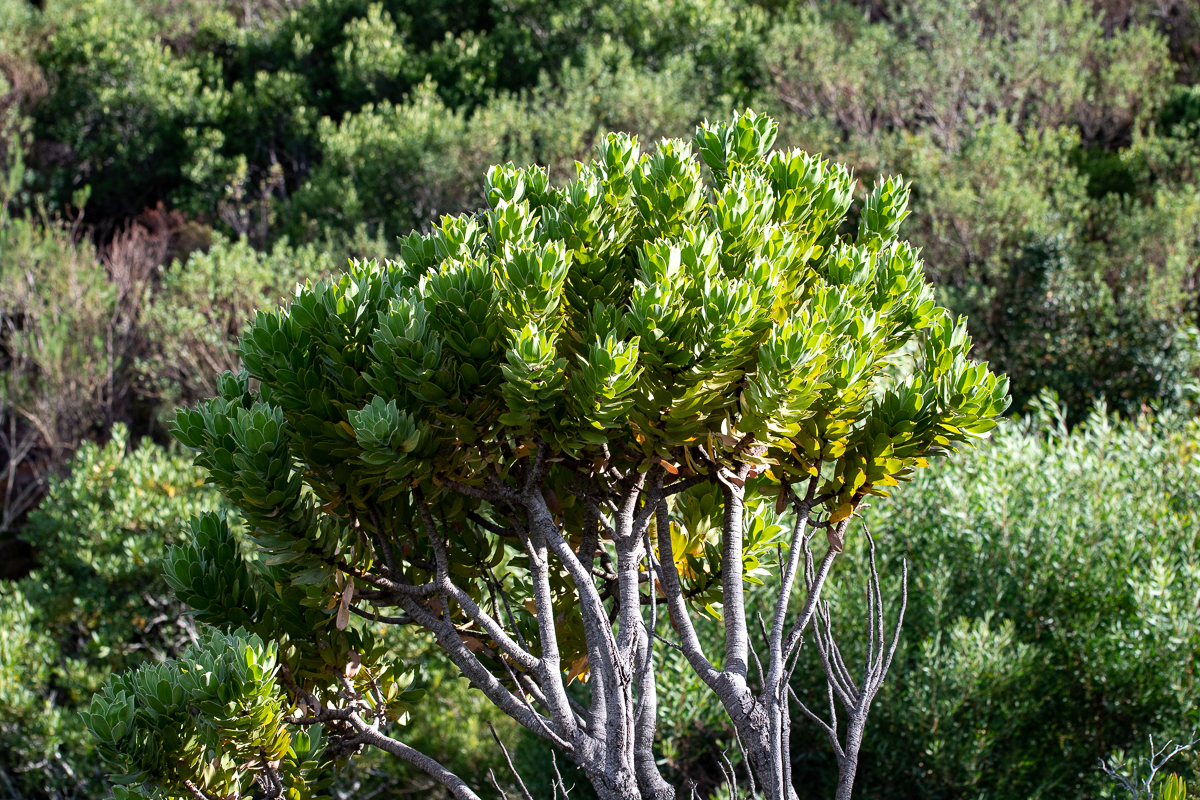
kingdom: Plantae
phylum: Tracheophyta
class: Magnoliopsida
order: Proteales
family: Proteaceae
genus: Leucospermum
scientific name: Leucospermum conocarpodendron
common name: Tree pincushion
